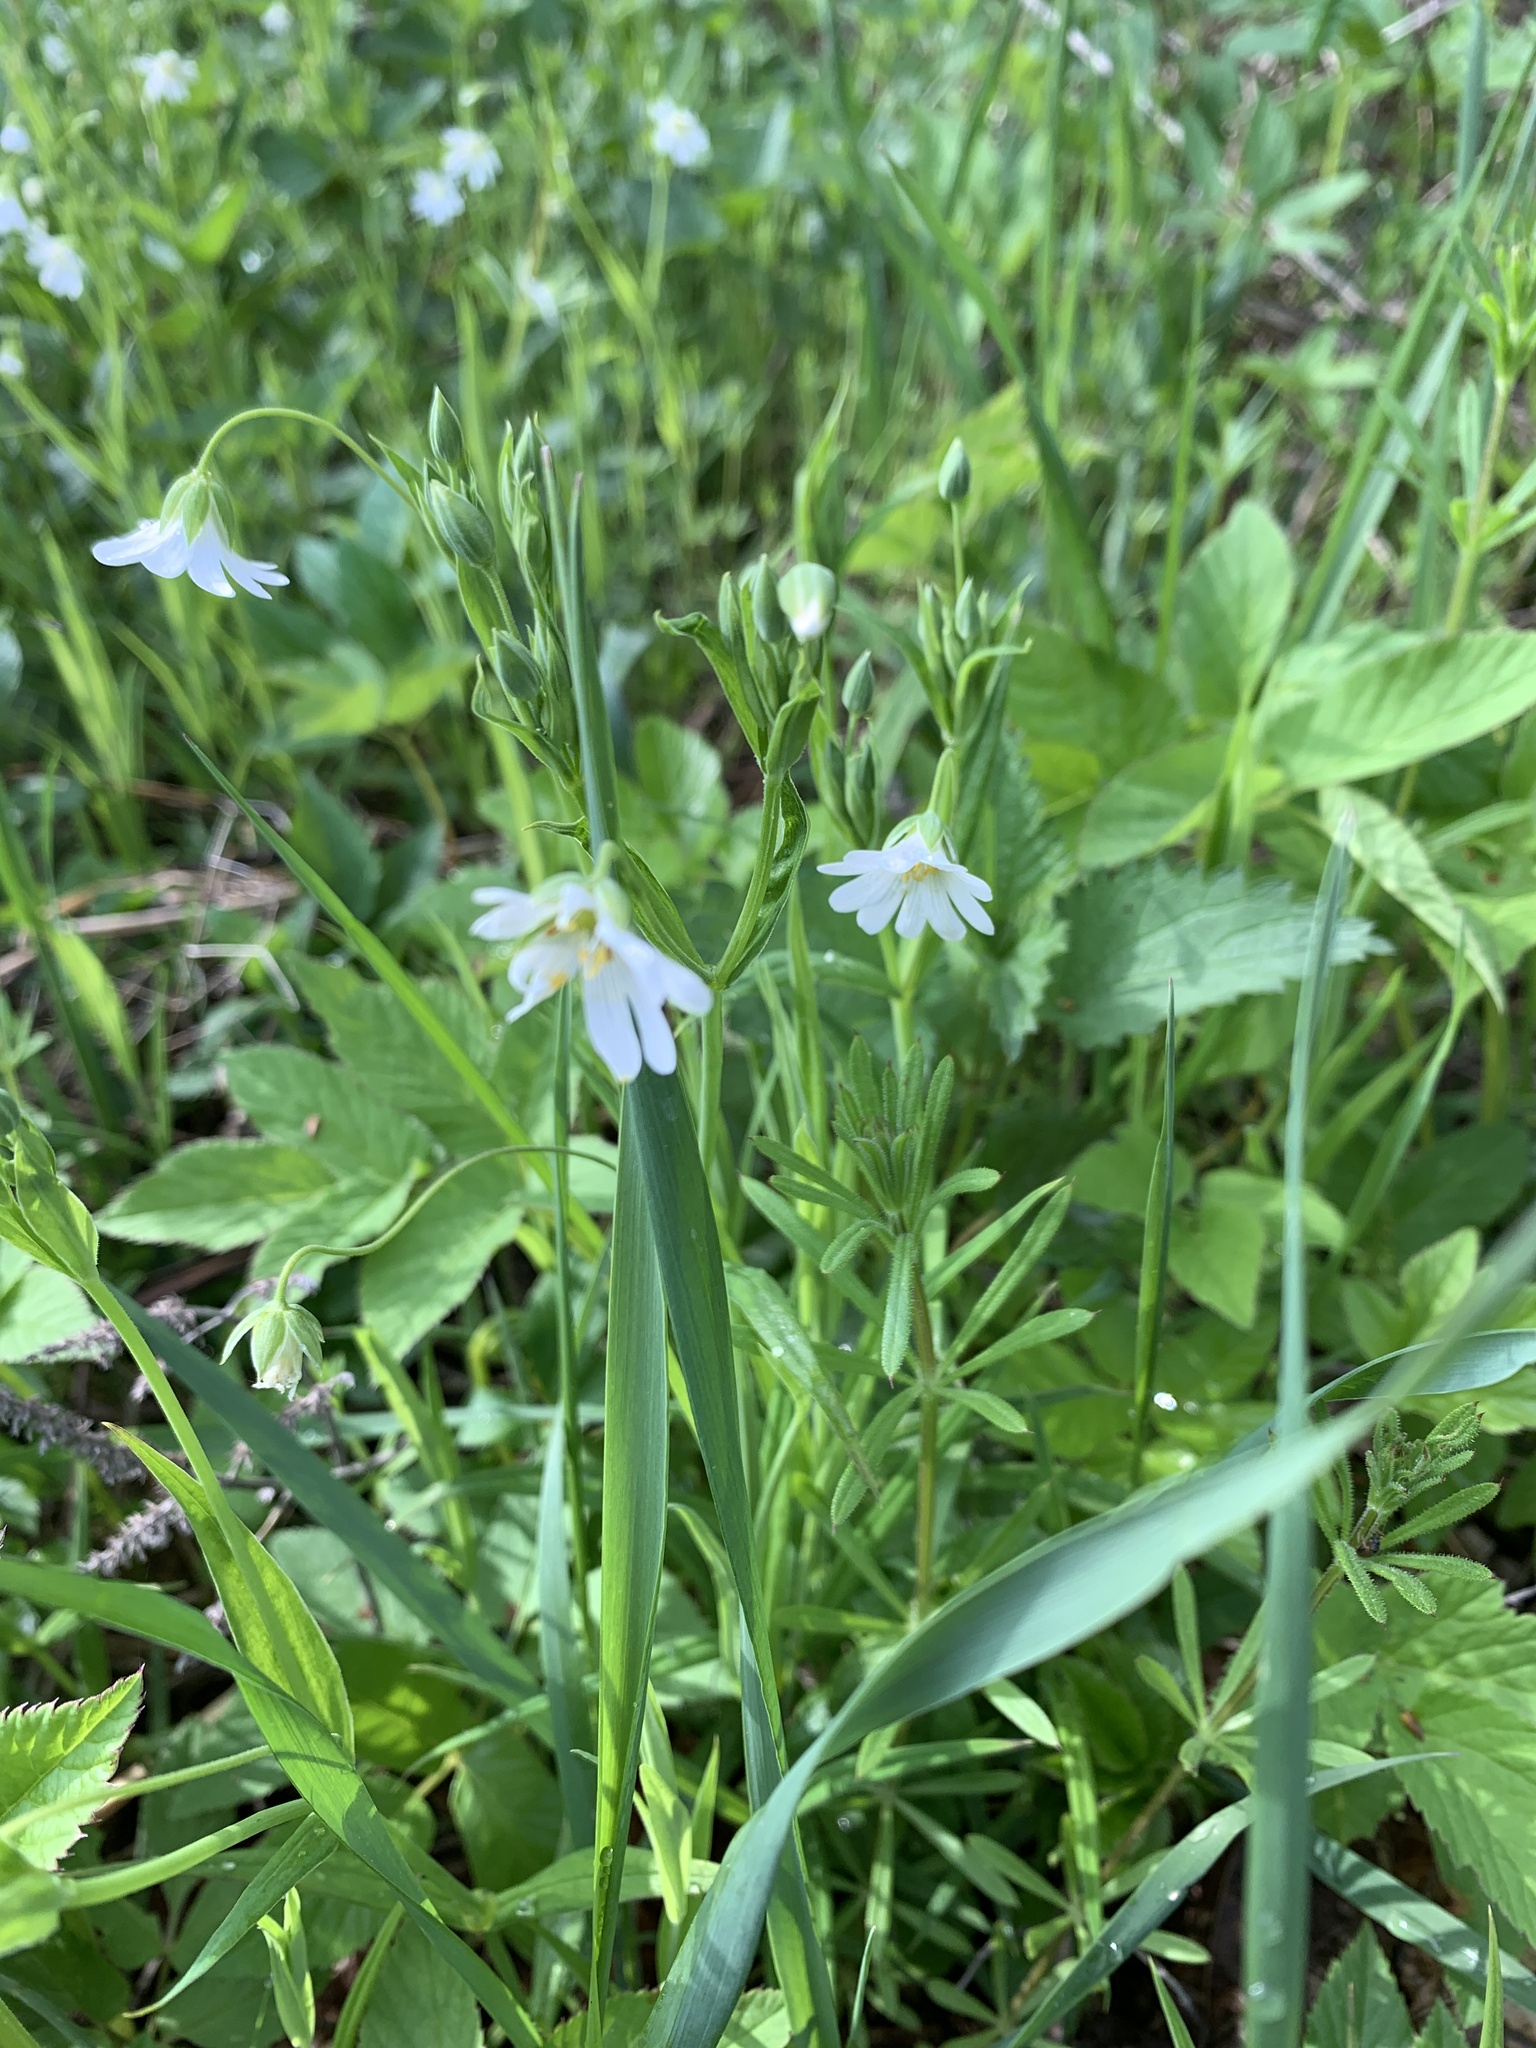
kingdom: Plantae
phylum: Tracheophyta
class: Magnoliopsida
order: Caryophyllales
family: Caryophyllaceae
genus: Rabelera
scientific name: Rabelera holostea
